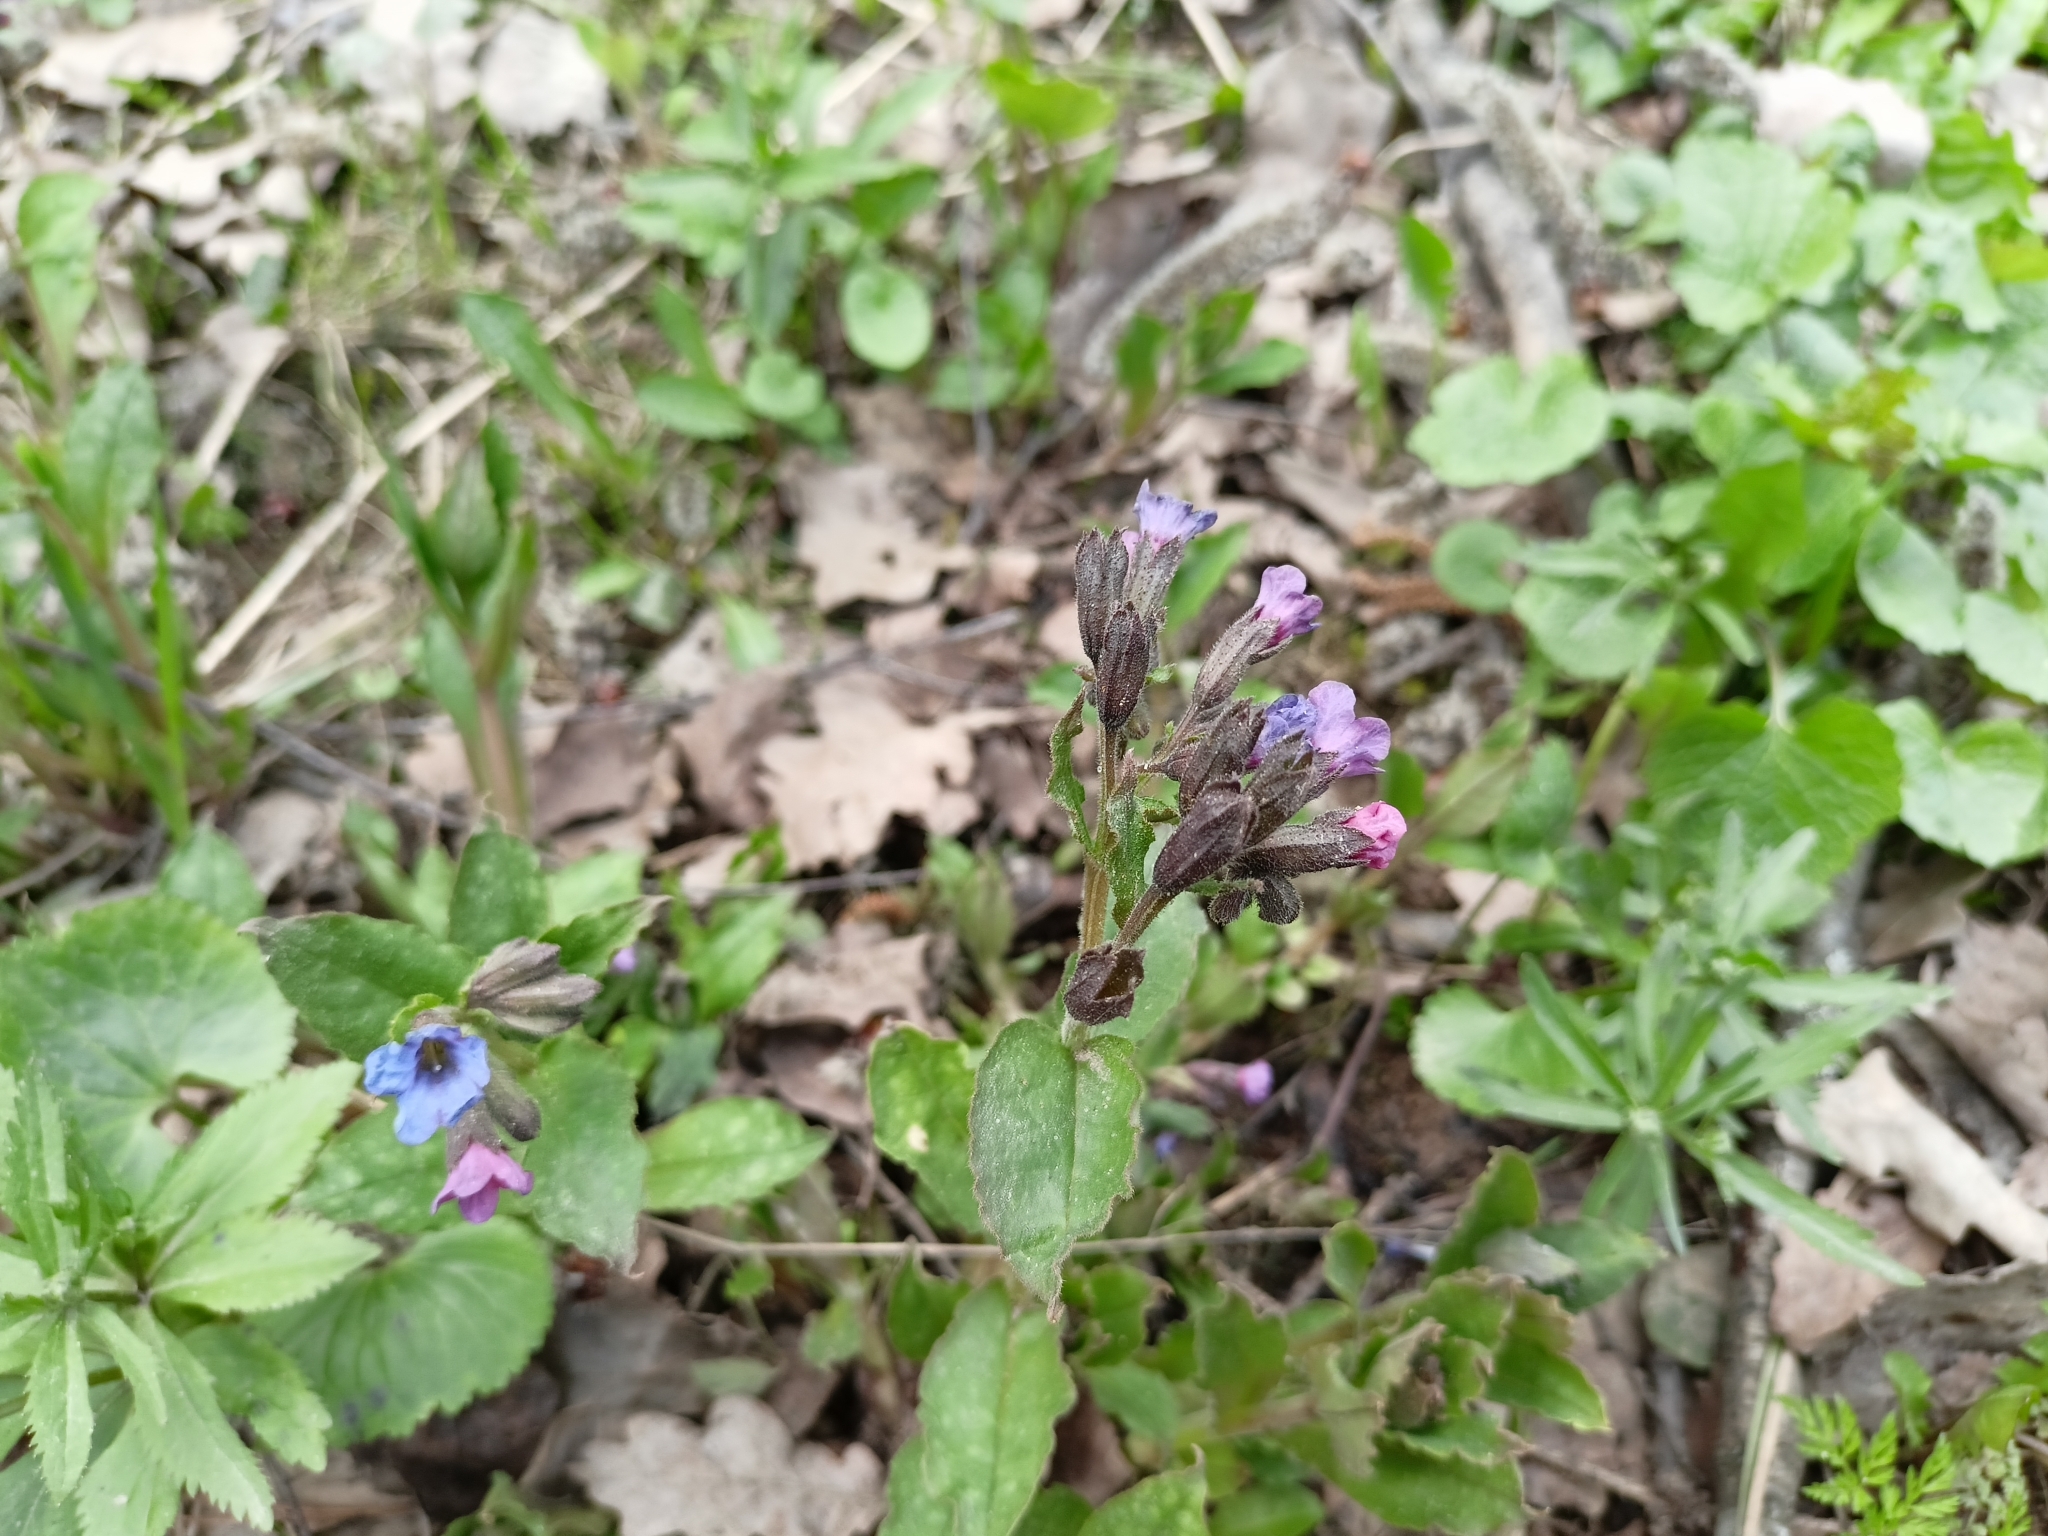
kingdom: Plantae
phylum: Tracheophyta
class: Magnoliopsida
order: Boraginales
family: Boraginaceae
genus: Pulmonaria
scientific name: Pulmonaria obscura
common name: Suffolk lungwort
